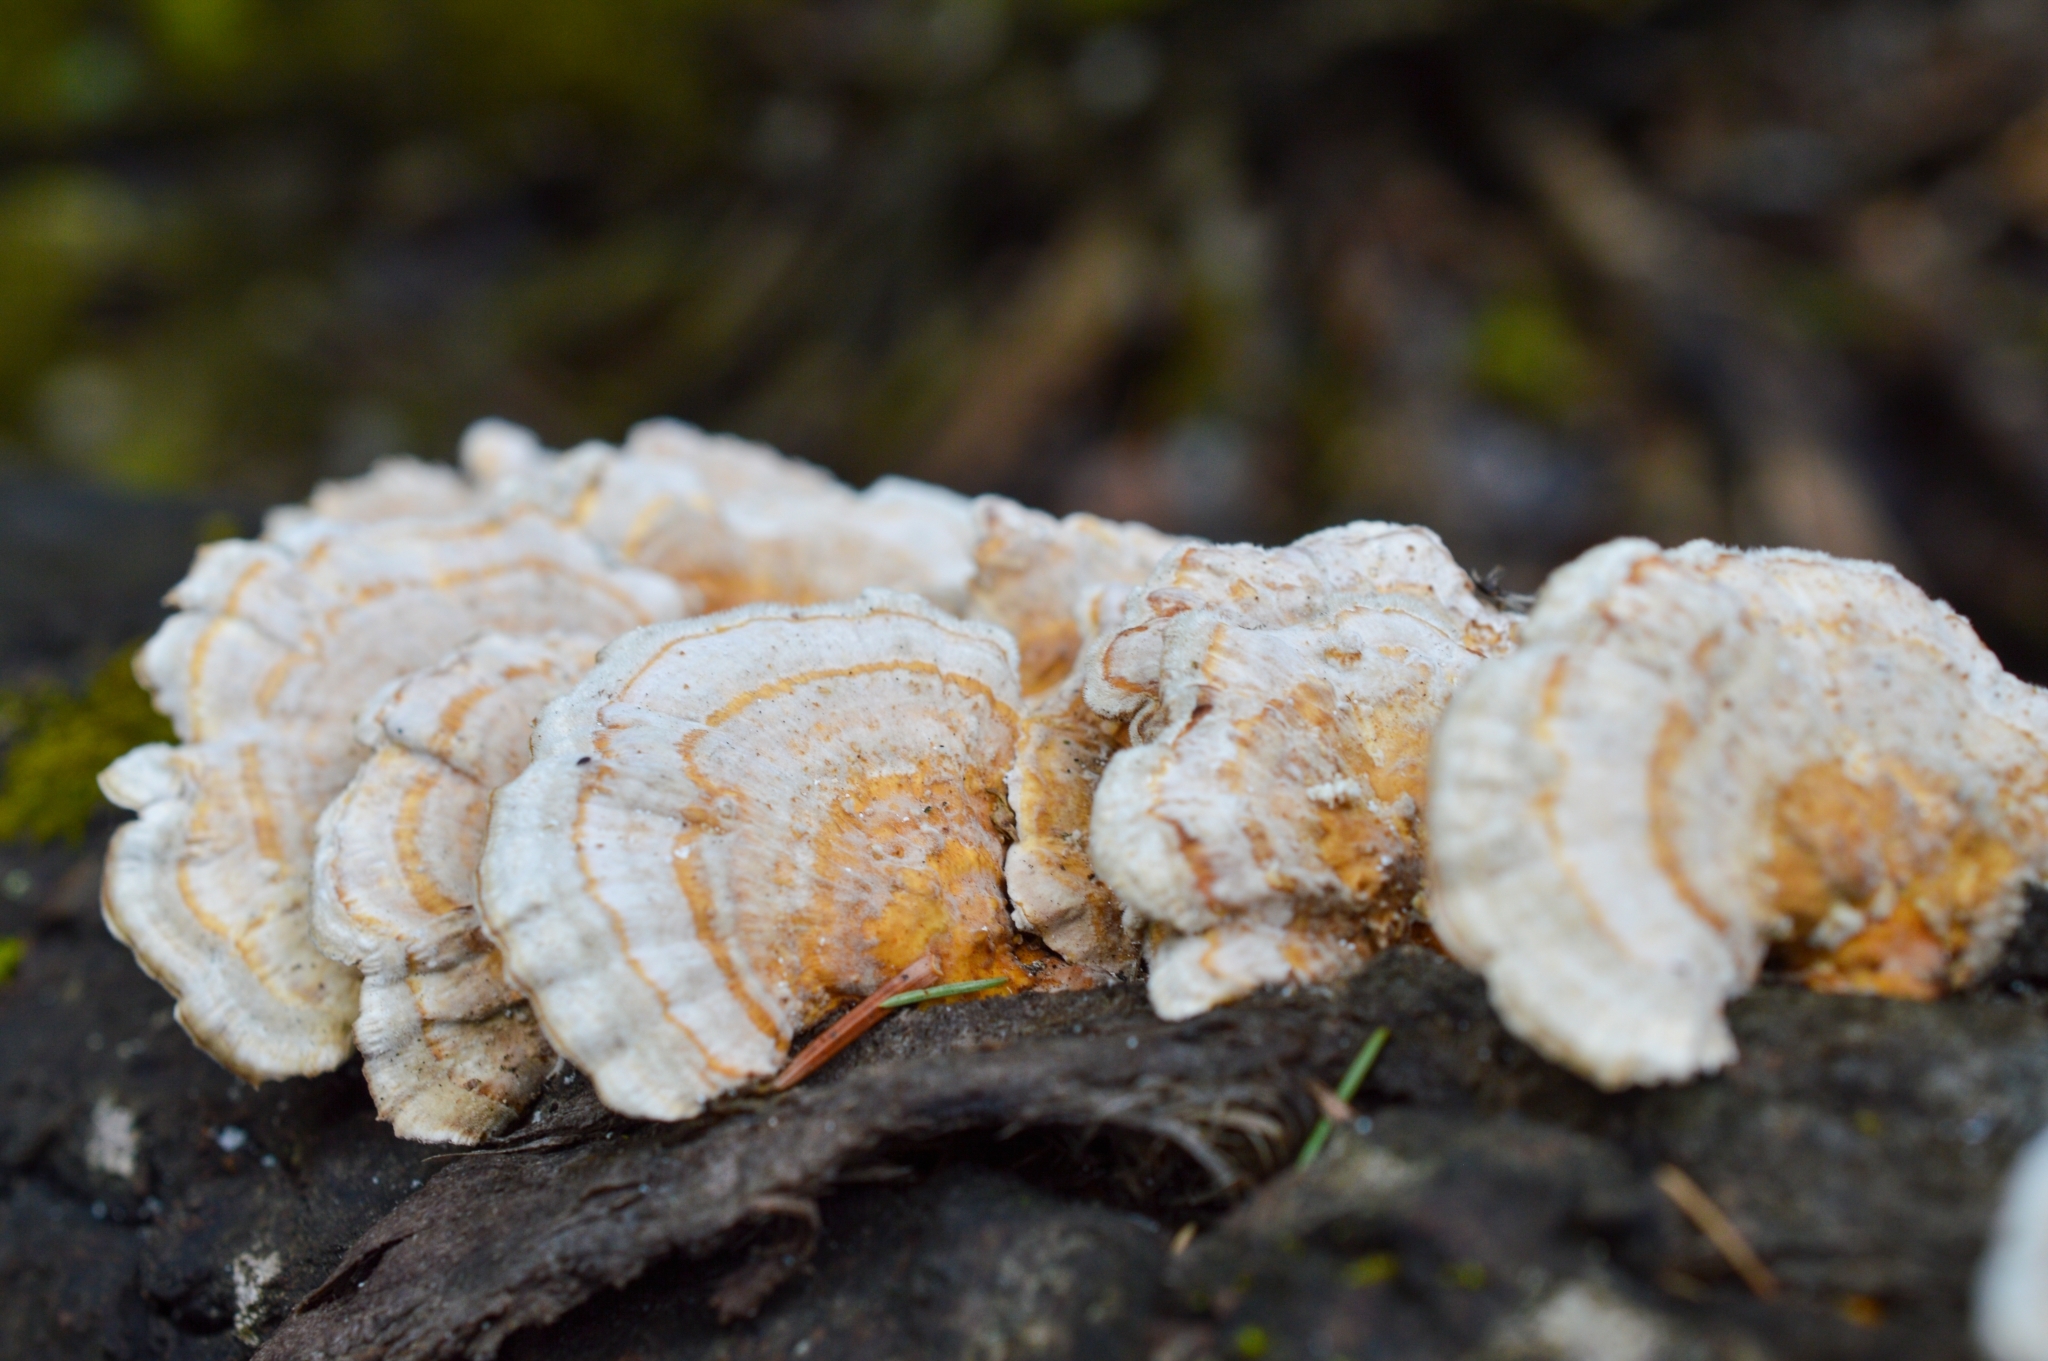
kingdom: Fungi
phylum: Basidiomycota
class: Agaricomycetes
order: Polyporales
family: Polyporaceae
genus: Trametes
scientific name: Trametes ochracea
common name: Ochre bracket
